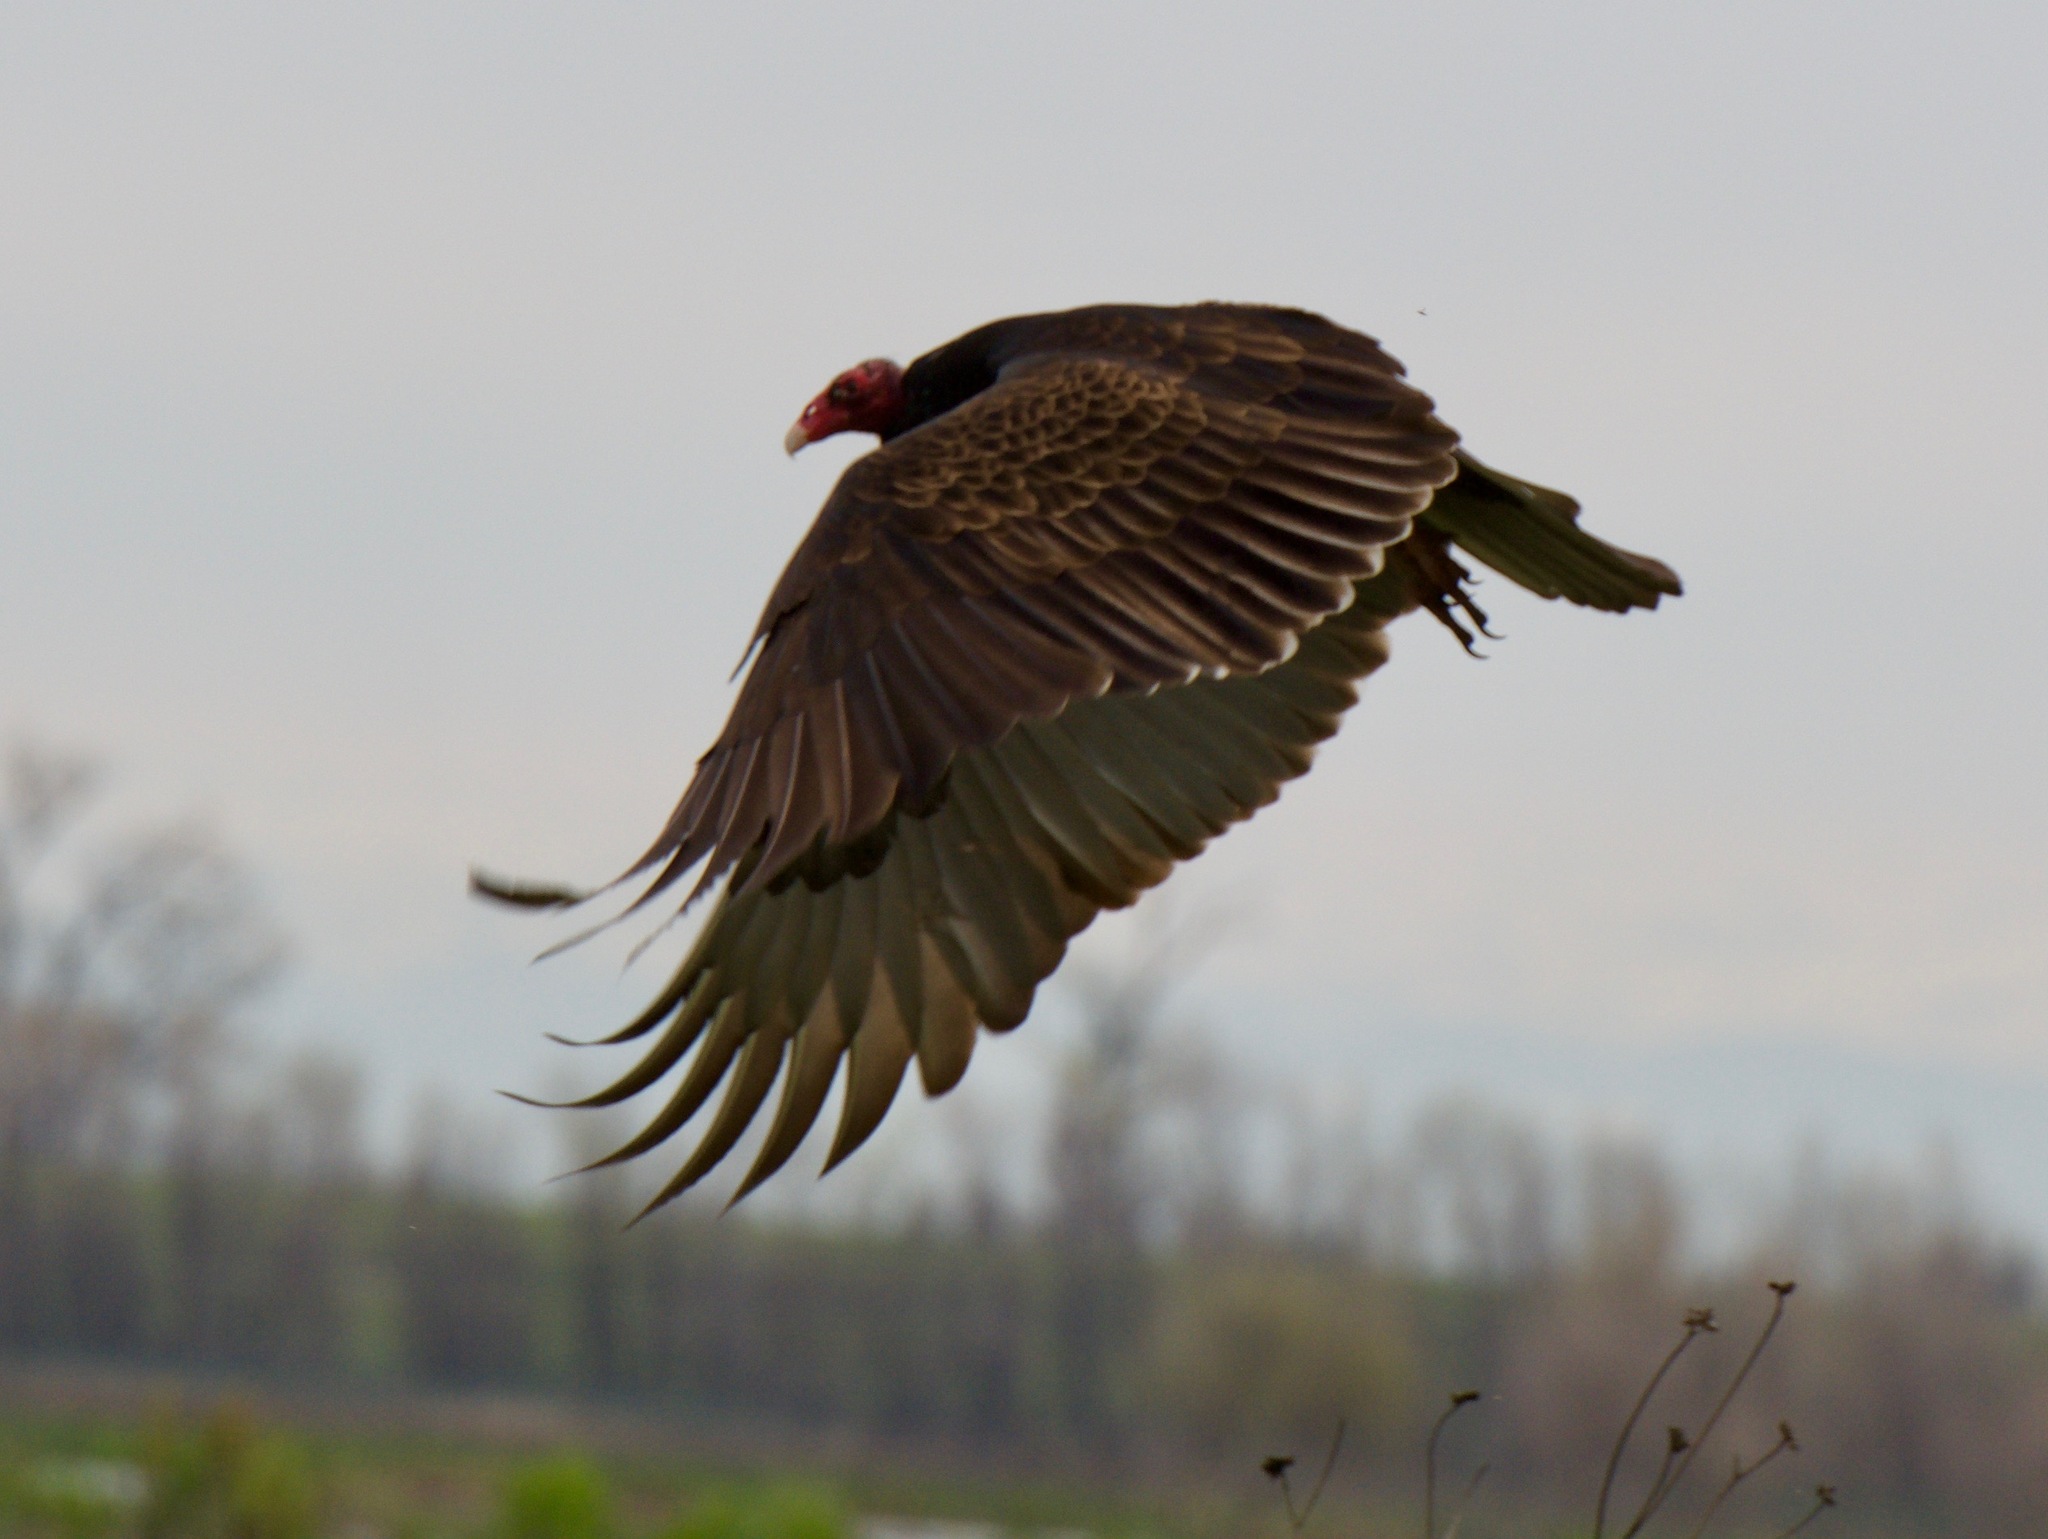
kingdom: Animalia
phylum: Chordata
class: Aves
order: Accipitriformes
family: Cathartidae
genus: Cathartes
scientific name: Cathartes aura
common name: Turkey vulture
